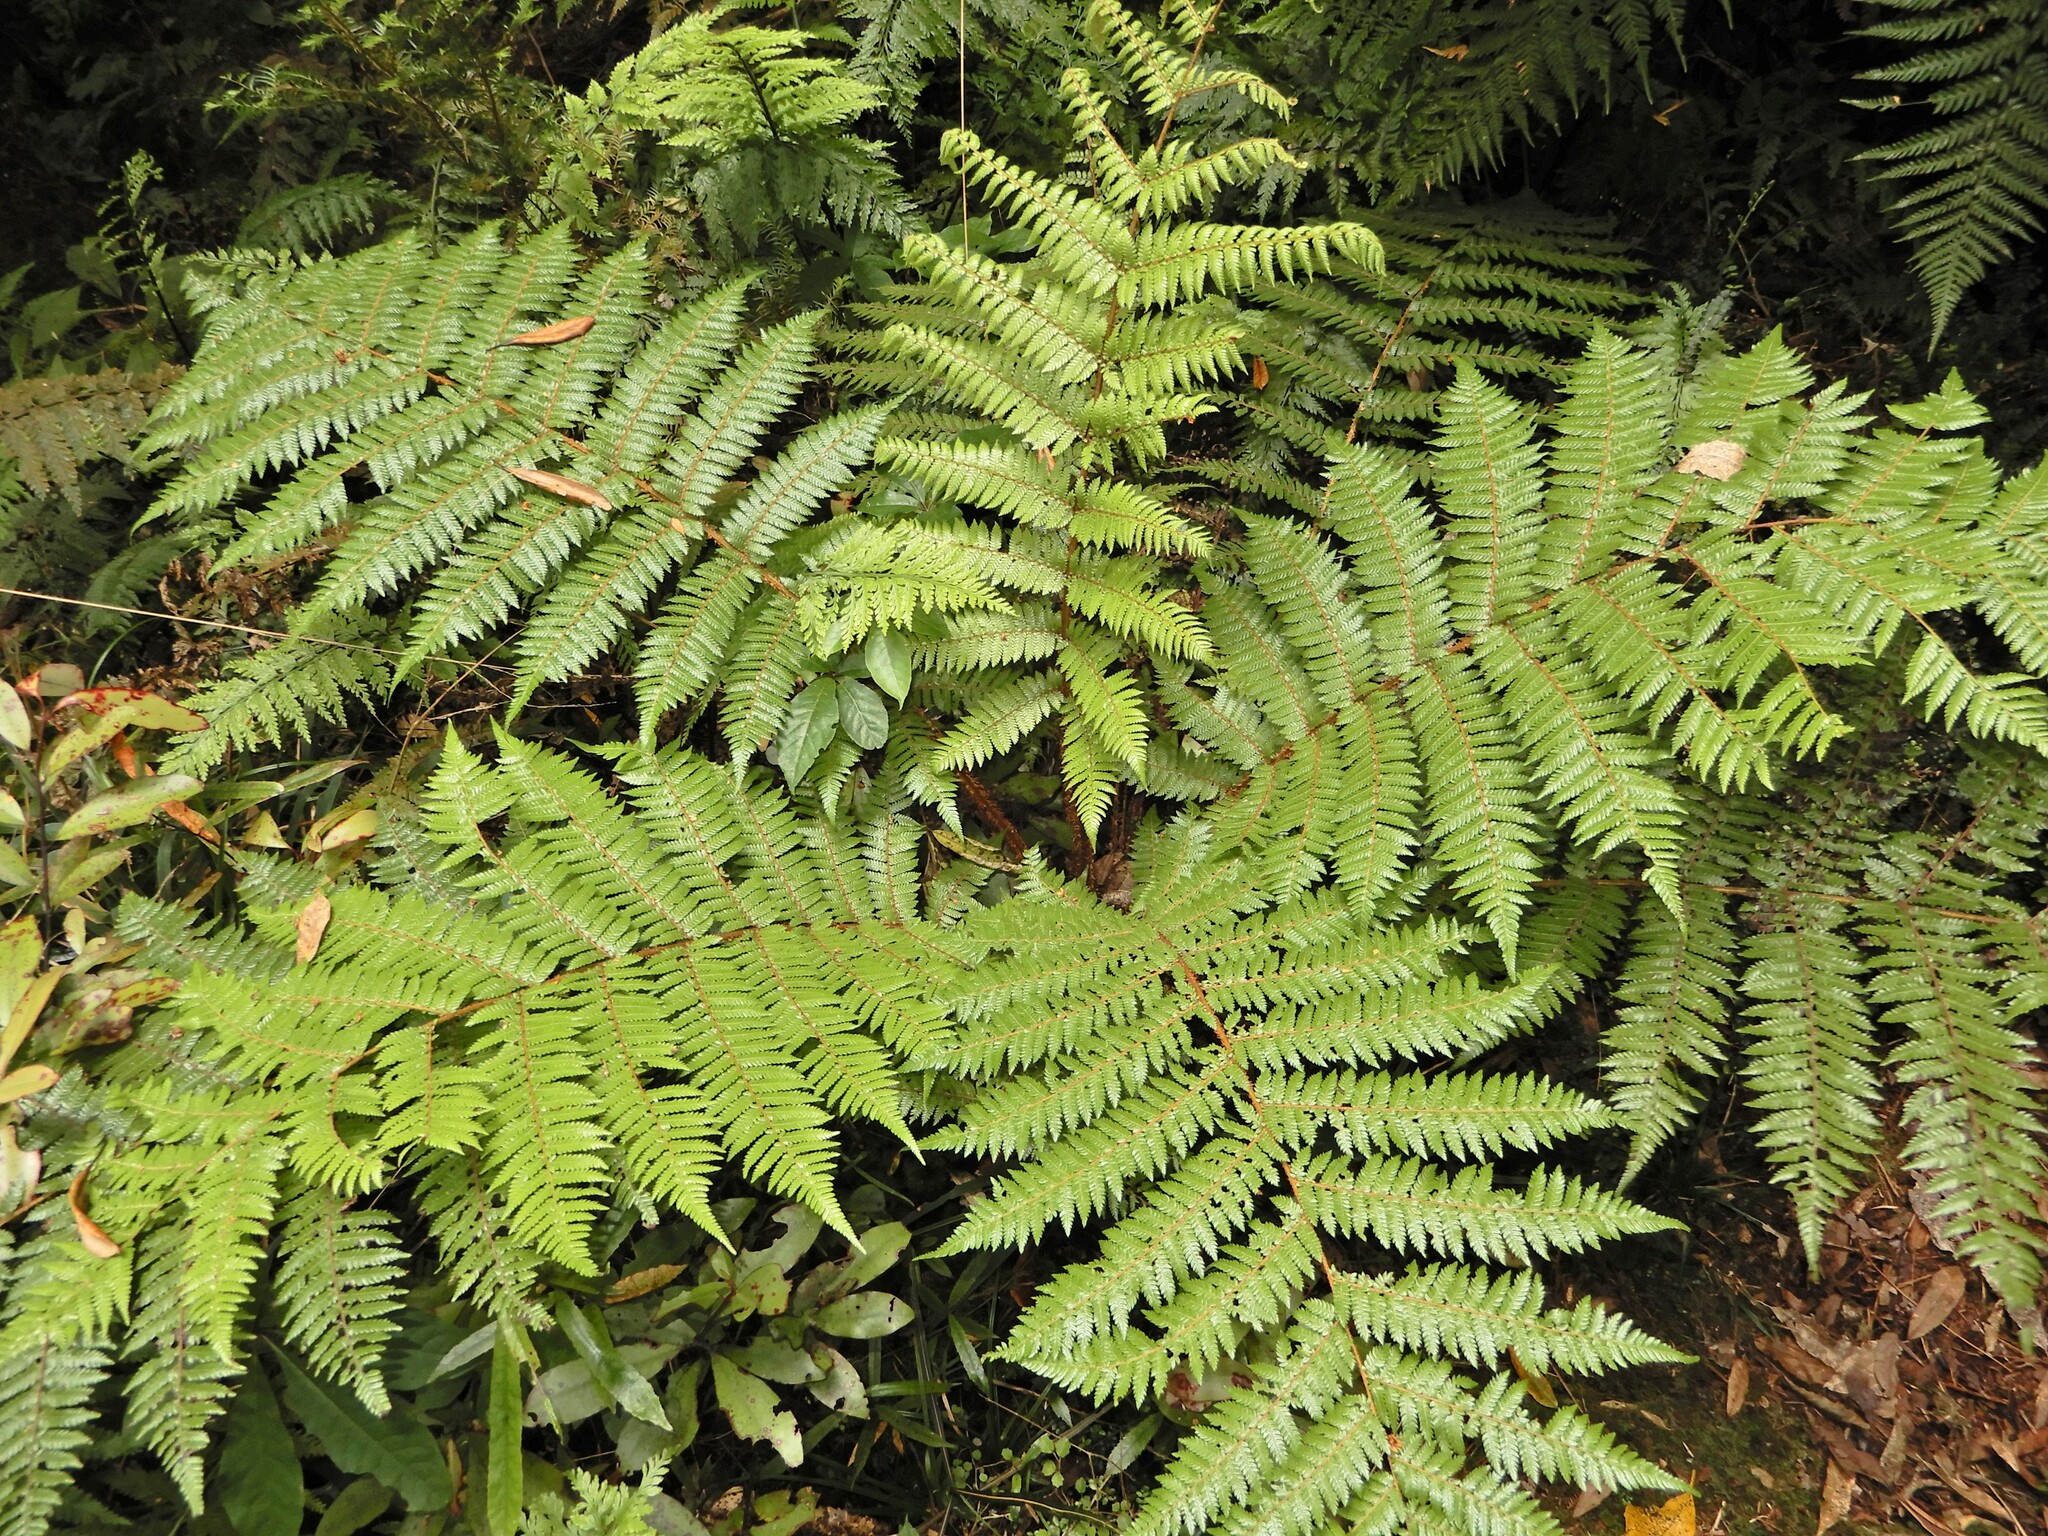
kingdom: Plantae
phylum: Tracheophyta
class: Polypodiopsida
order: Cyatheales
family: Cyatheaceae
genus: Alsophila
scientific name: Alsophila smithii
